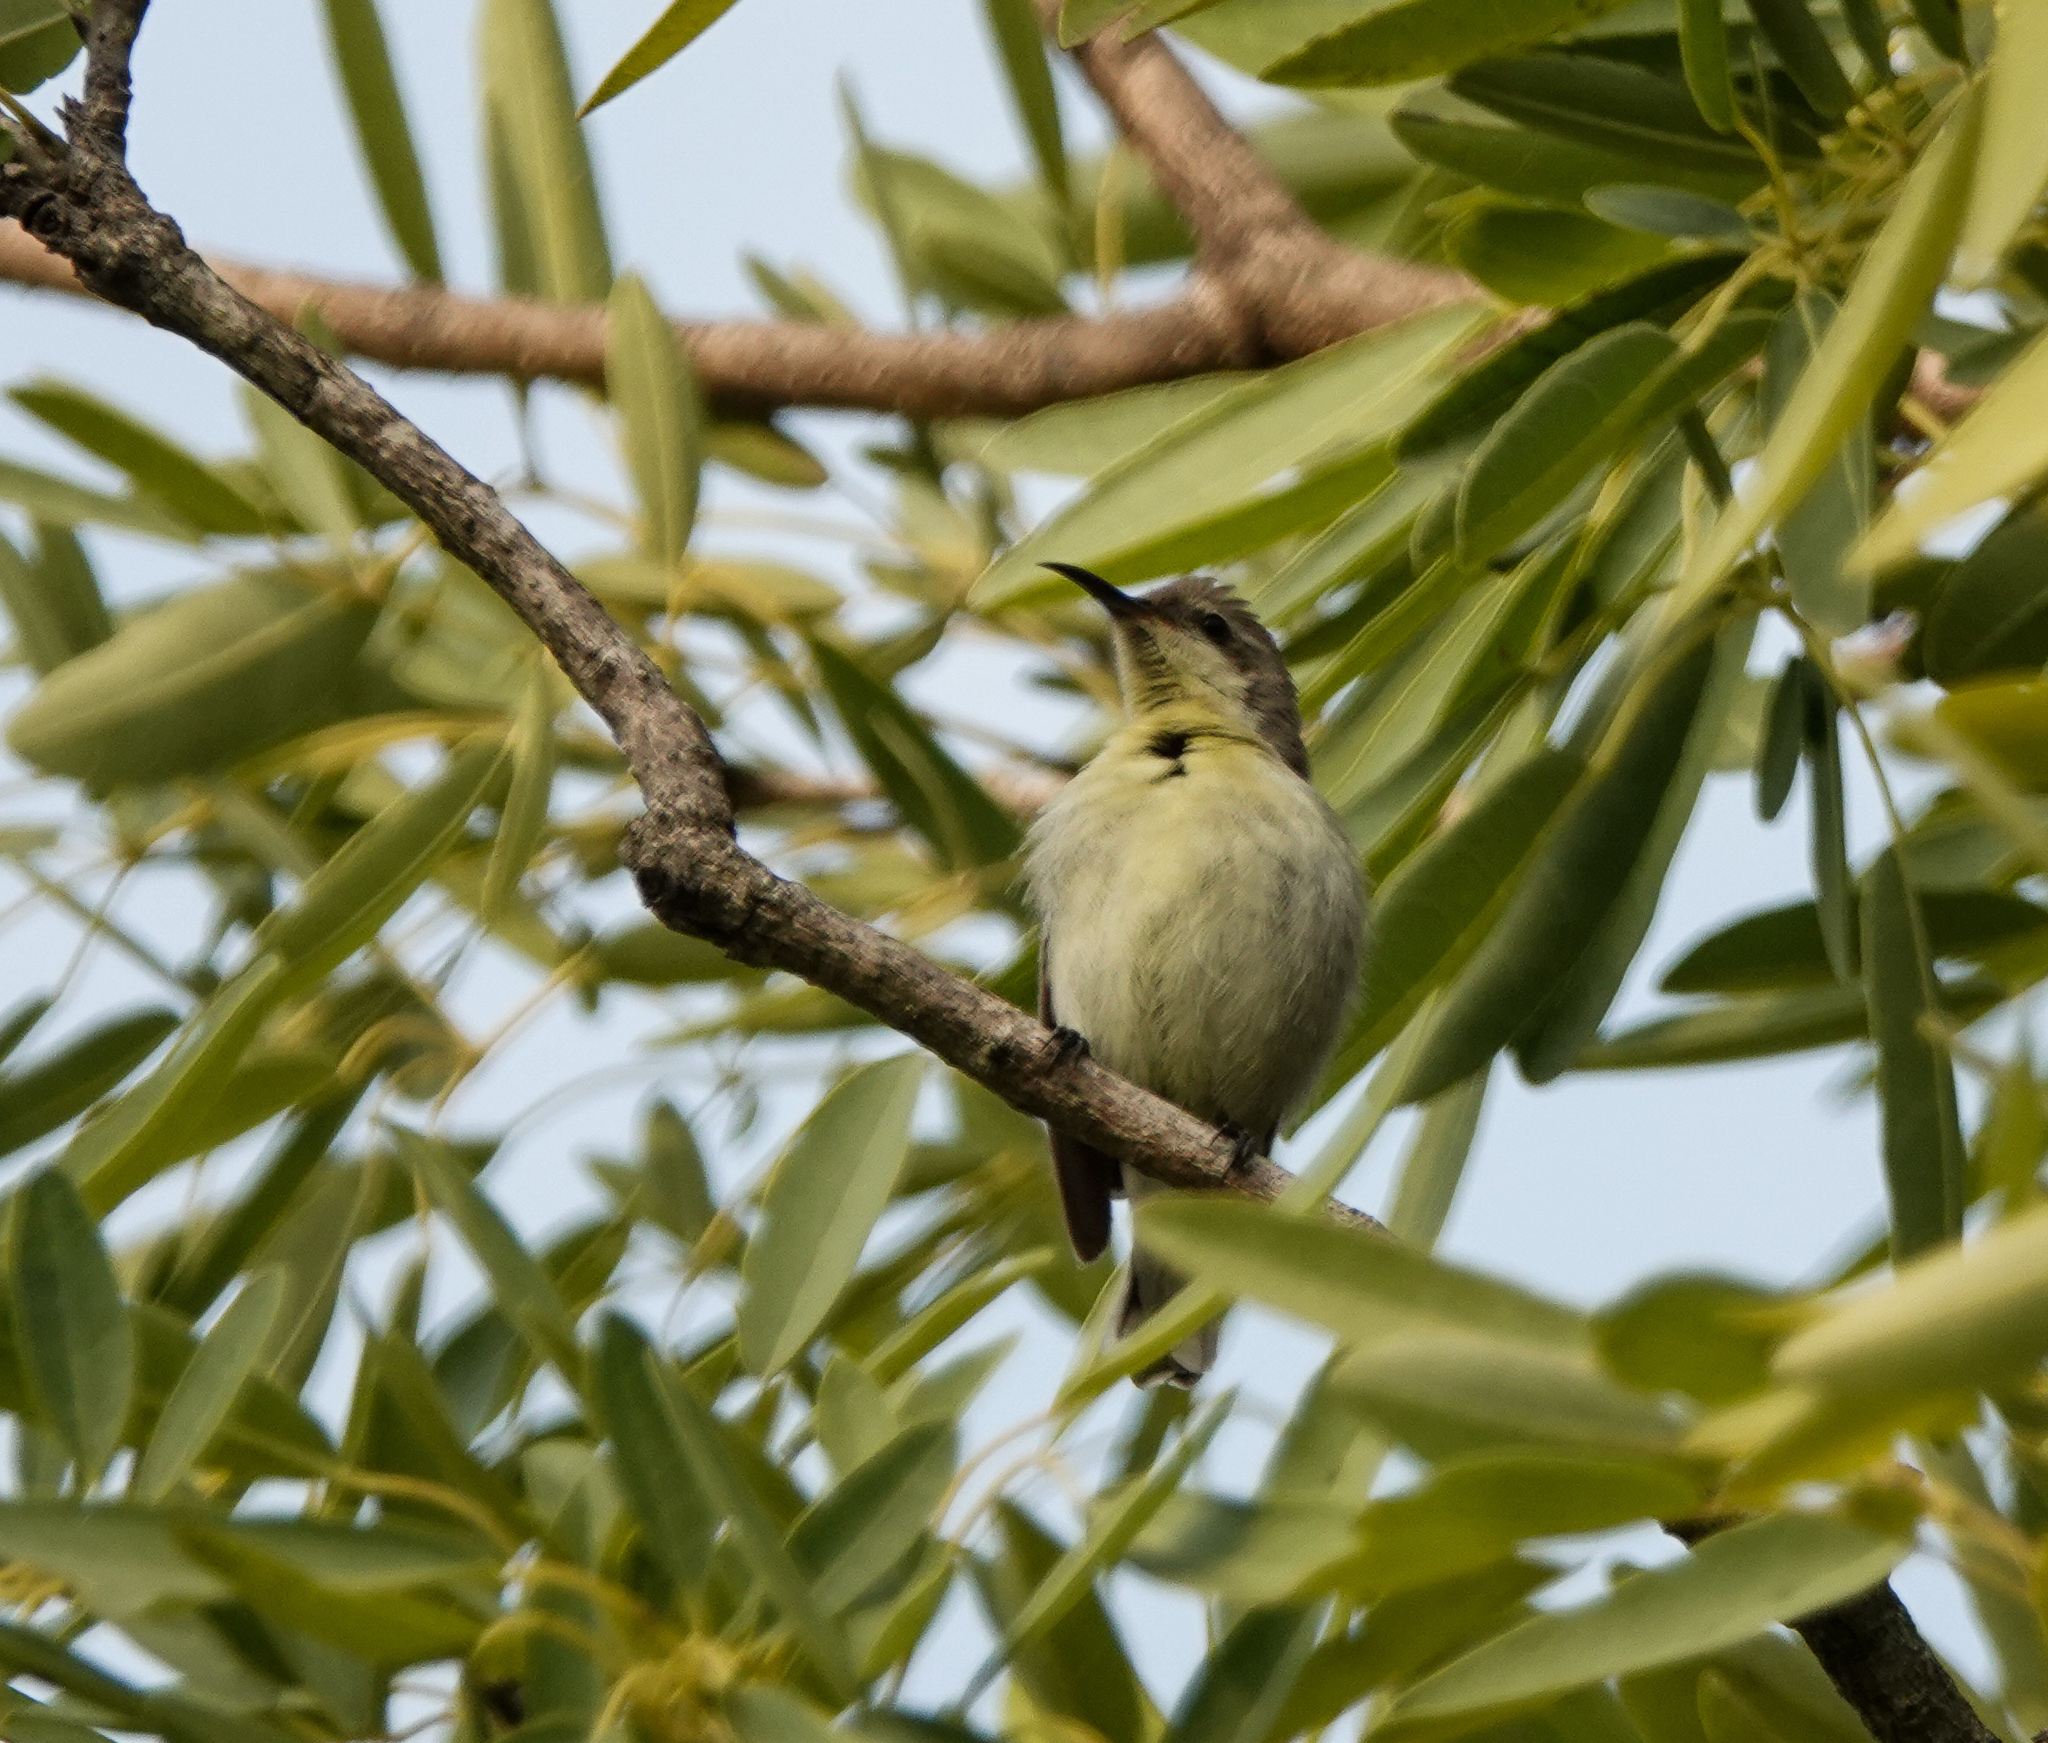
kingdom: Animalia
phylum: Chordata
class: Aves
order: Passeriformes
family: Nectariniidae
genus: Cinnyris
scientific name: Cinnyris asiaticus
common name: Purple sunbird
